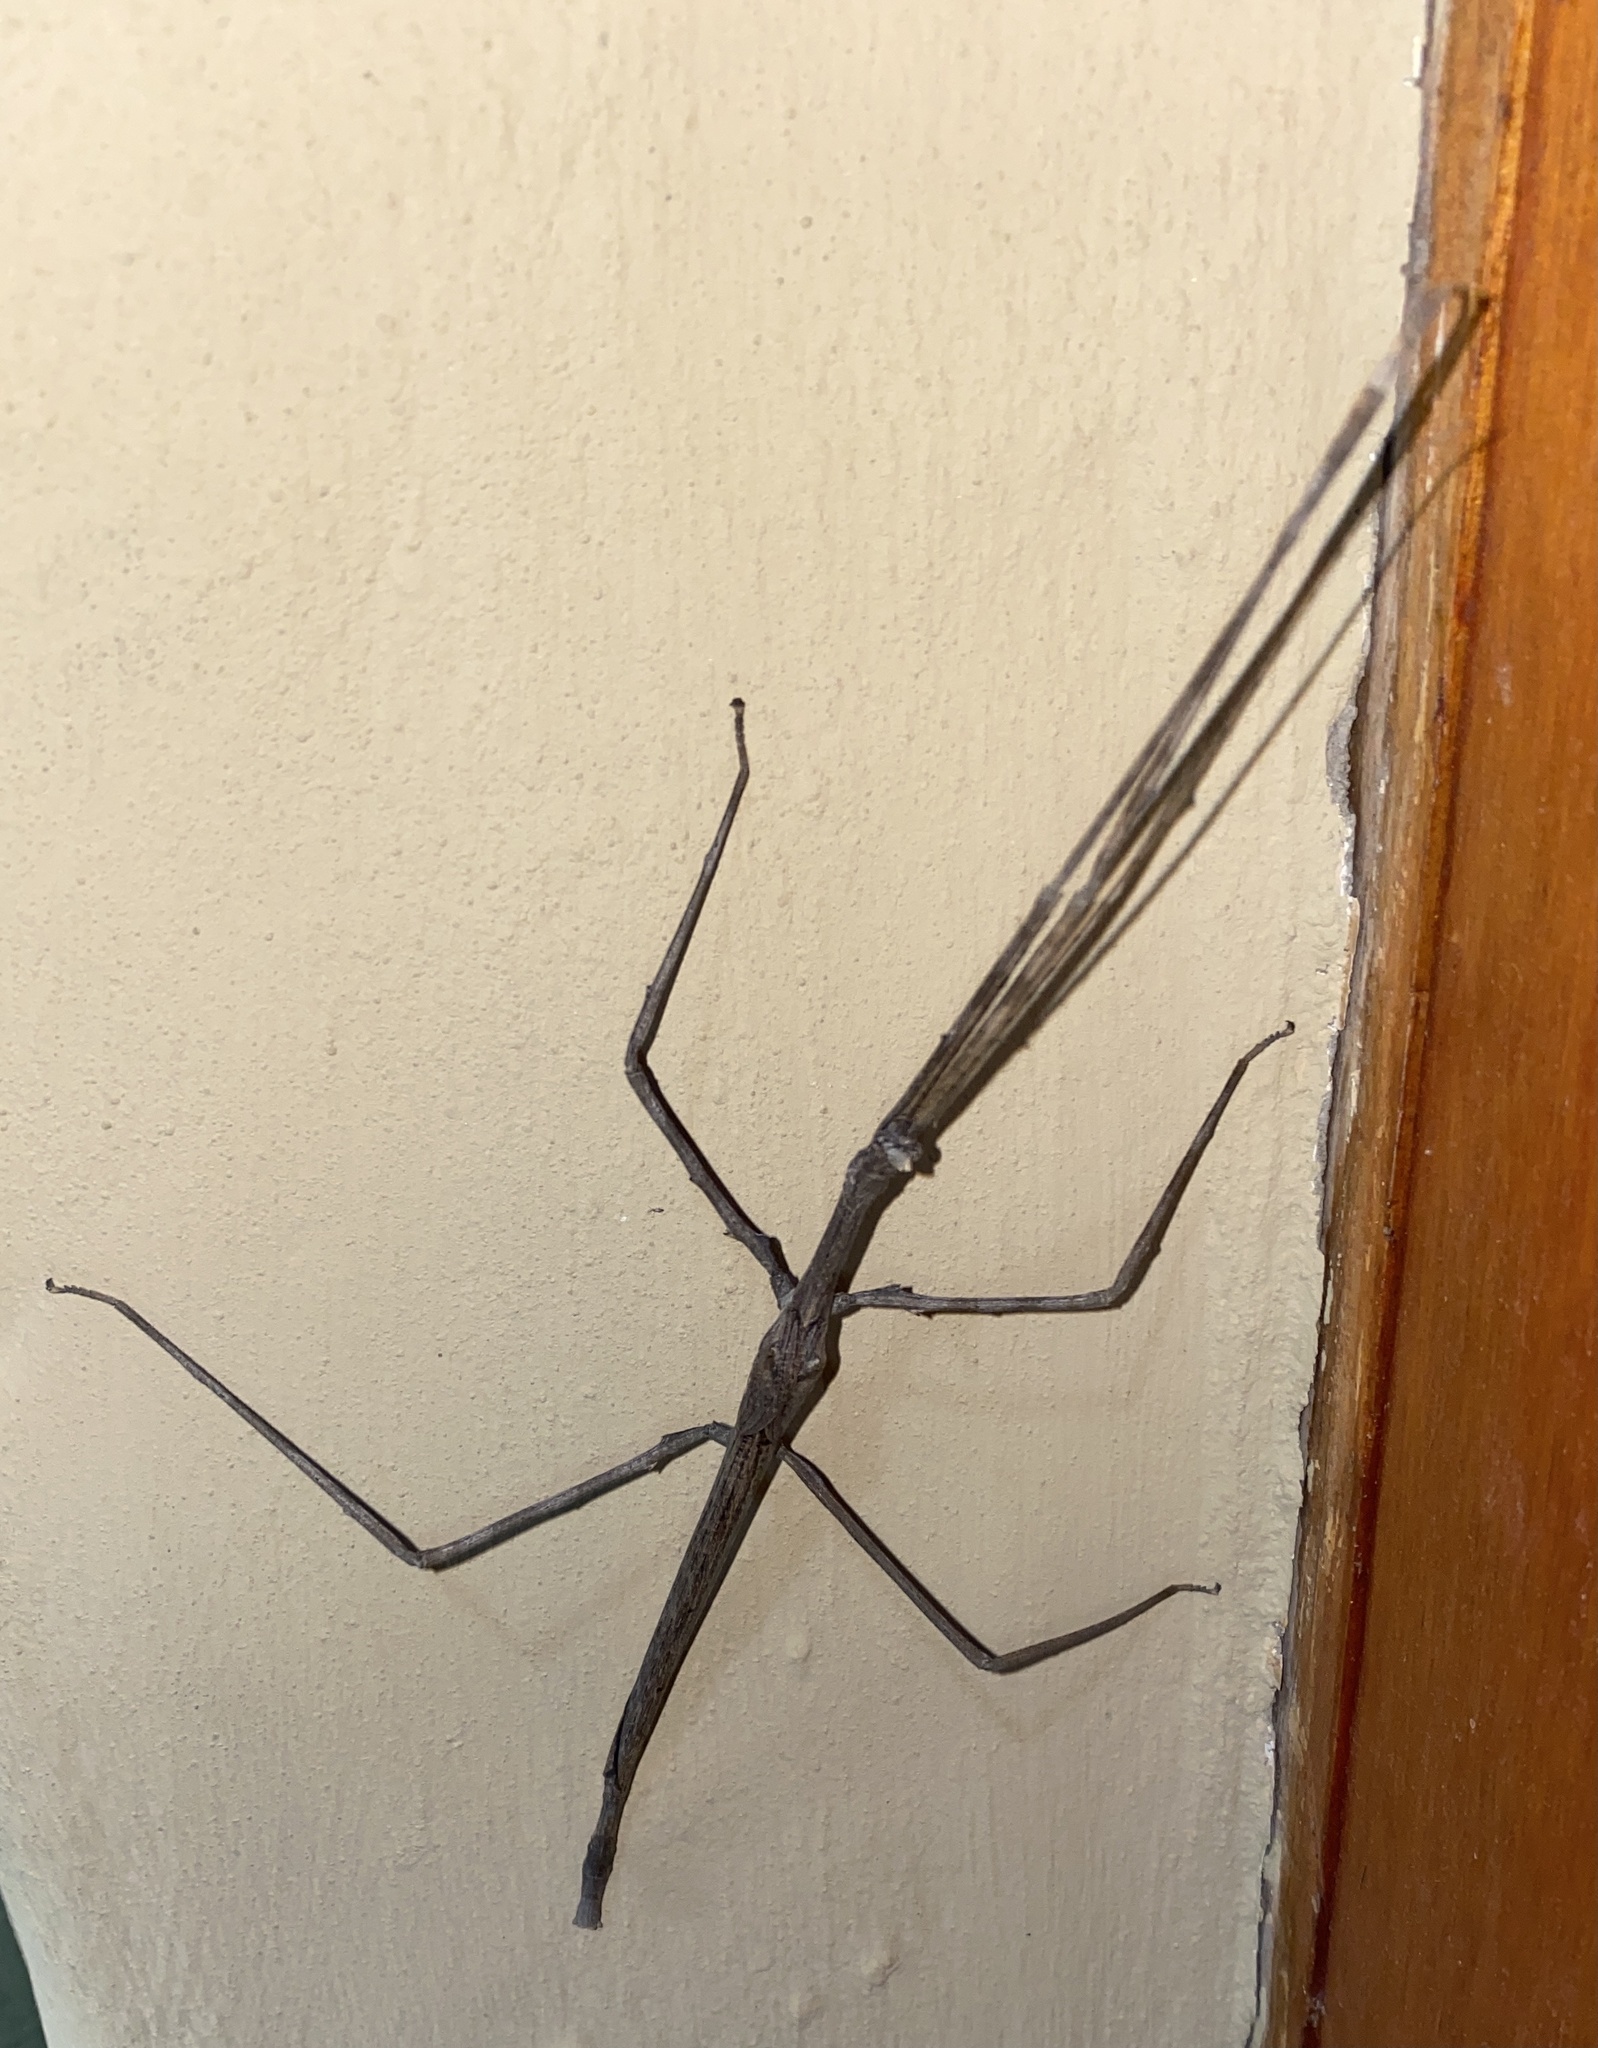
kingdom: Animalia
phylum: Arthropoda
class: Insecta
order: Phasmida
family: Diapheromeridae
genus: Bactrododema
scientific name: Bactrododema tiaratum
